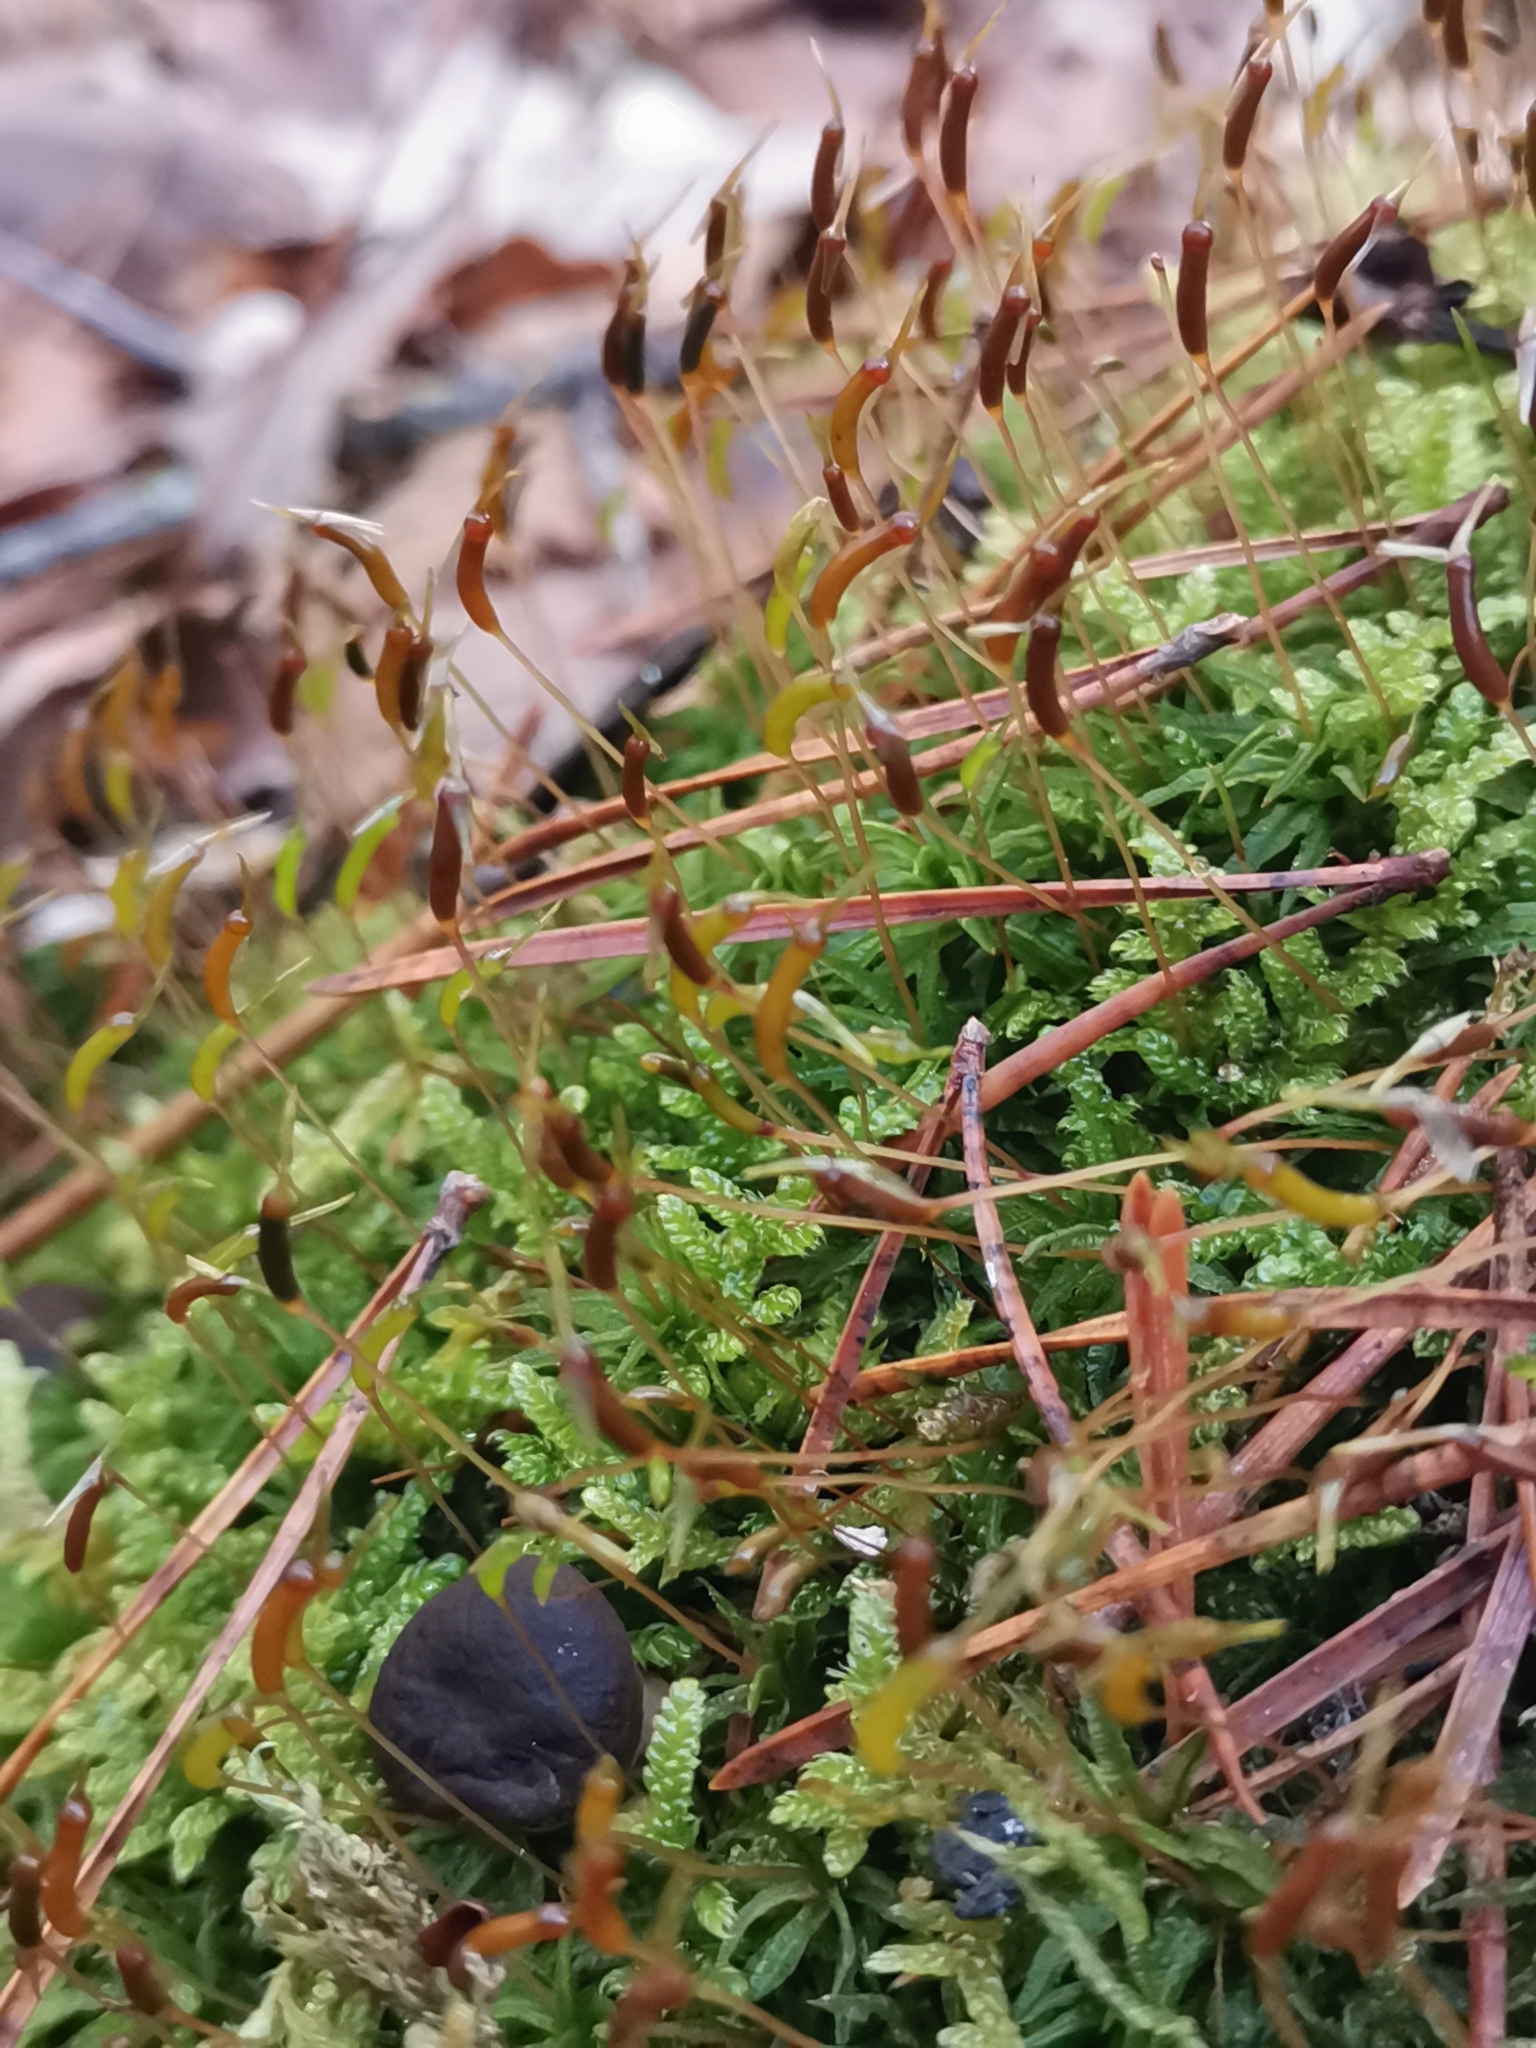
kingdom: Plantae
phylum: Bryophyta
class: Polytrichopsida
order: Polytrichales
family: Polytrichaceae
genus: Atrichum
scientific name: Atrichum undulatum
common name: Common smoothcap
